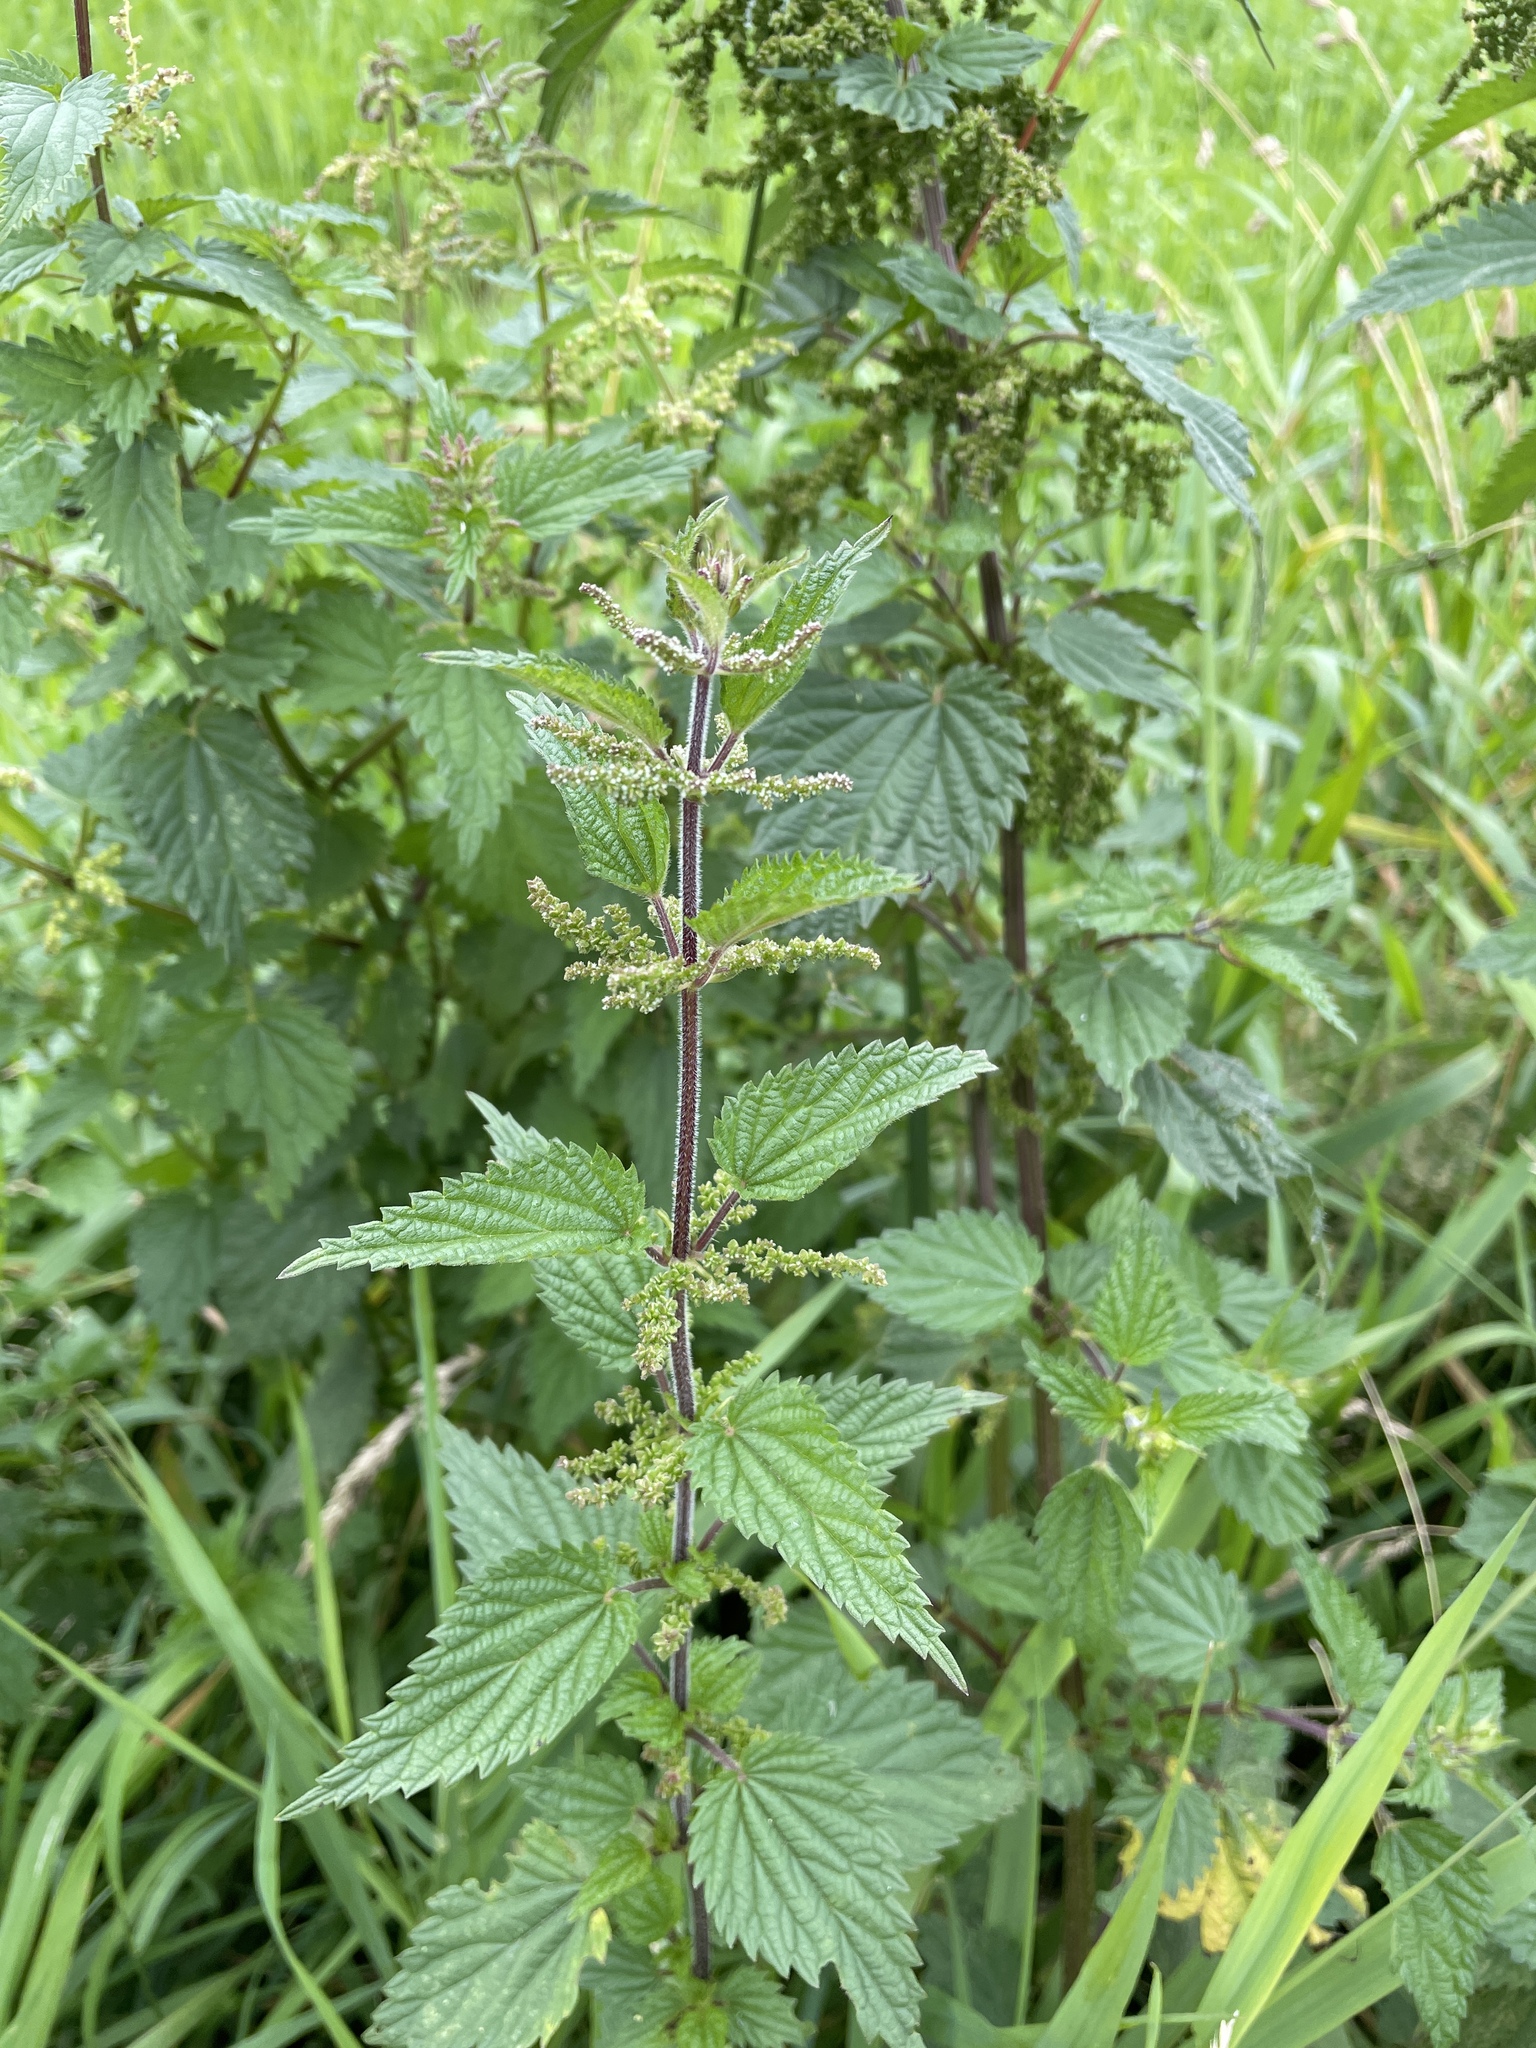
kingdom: Plantae
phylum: Tracheophyta
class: Magnoliopsida
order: Rosales
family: Urticaceae
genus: Urtica
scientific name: Urtica dioica
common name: Common nettle
